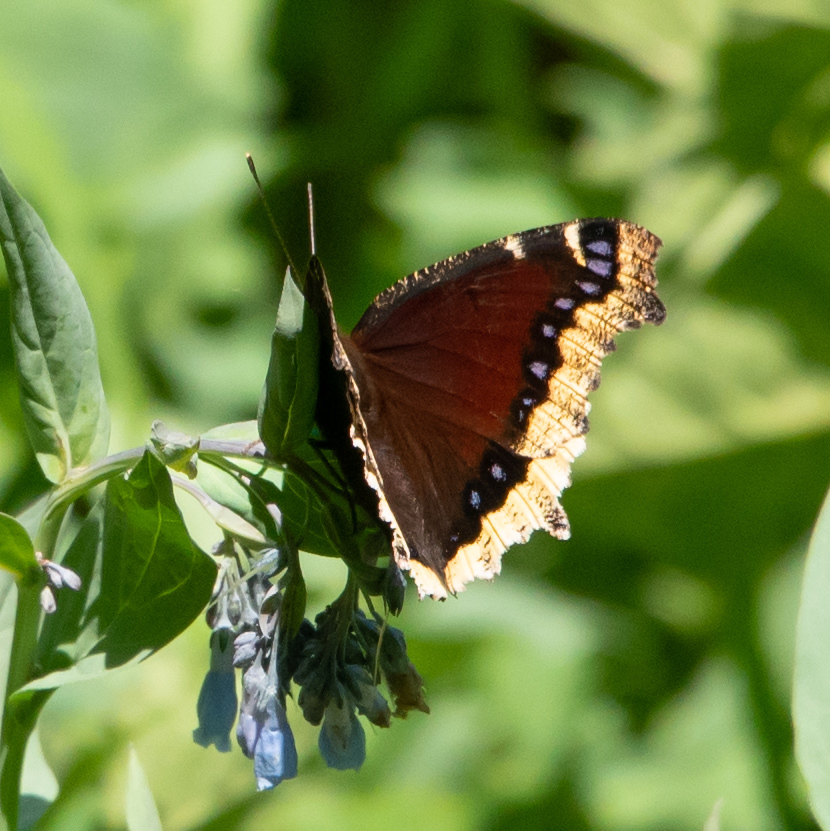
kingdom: Animalia
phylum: Arthropoda
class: Insecta
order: Lepidoptera
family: Nymphalidae
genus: Nymphalis
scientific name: Nymphalis antiopa
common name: Camberwell beauty
